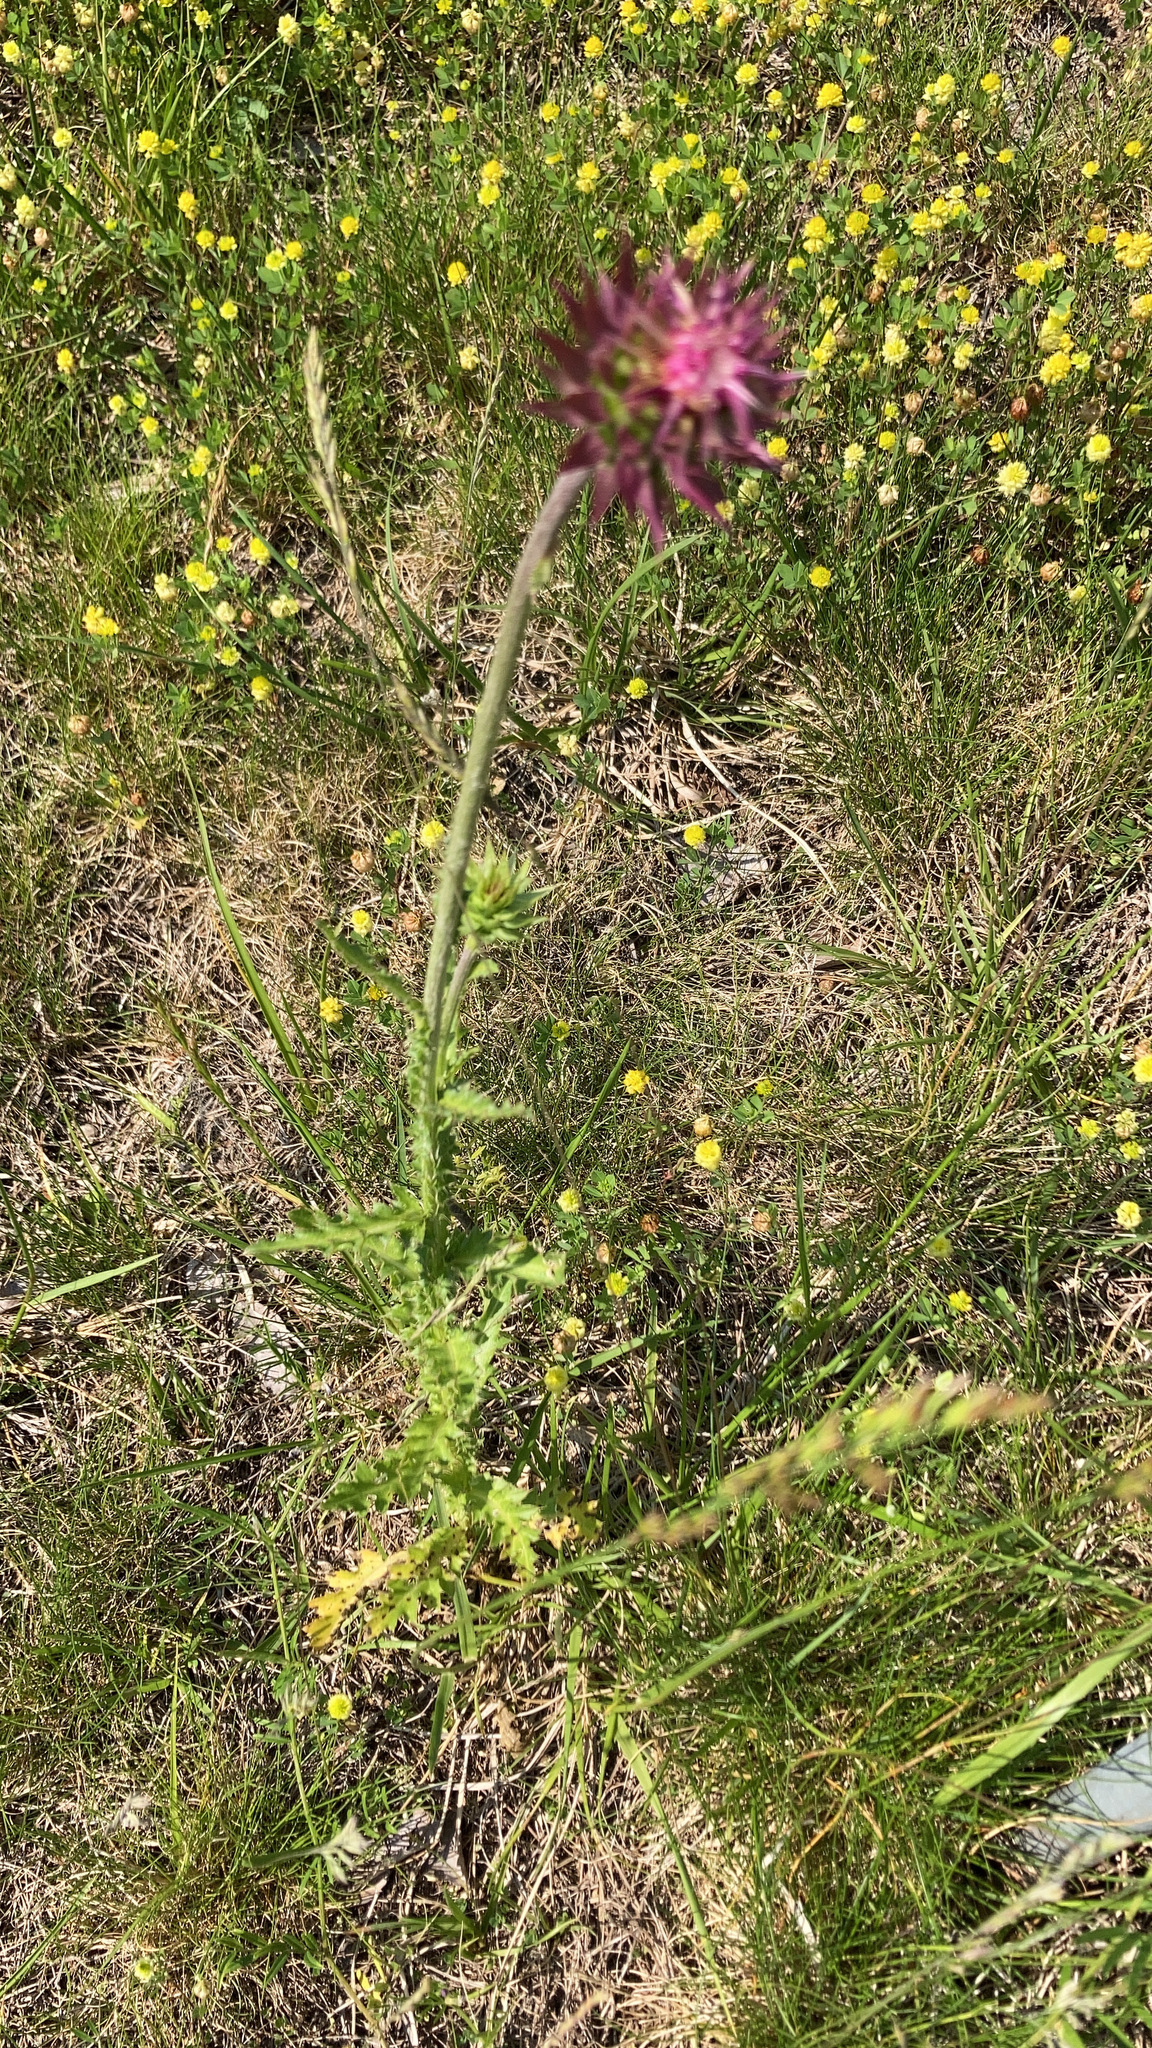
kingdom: Plantae
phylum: Tracheophyta
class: Magnoliopsida
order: Asterales
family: Asteraceae
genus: Carduus
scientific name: Carduus nutans
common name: Musk thistle
